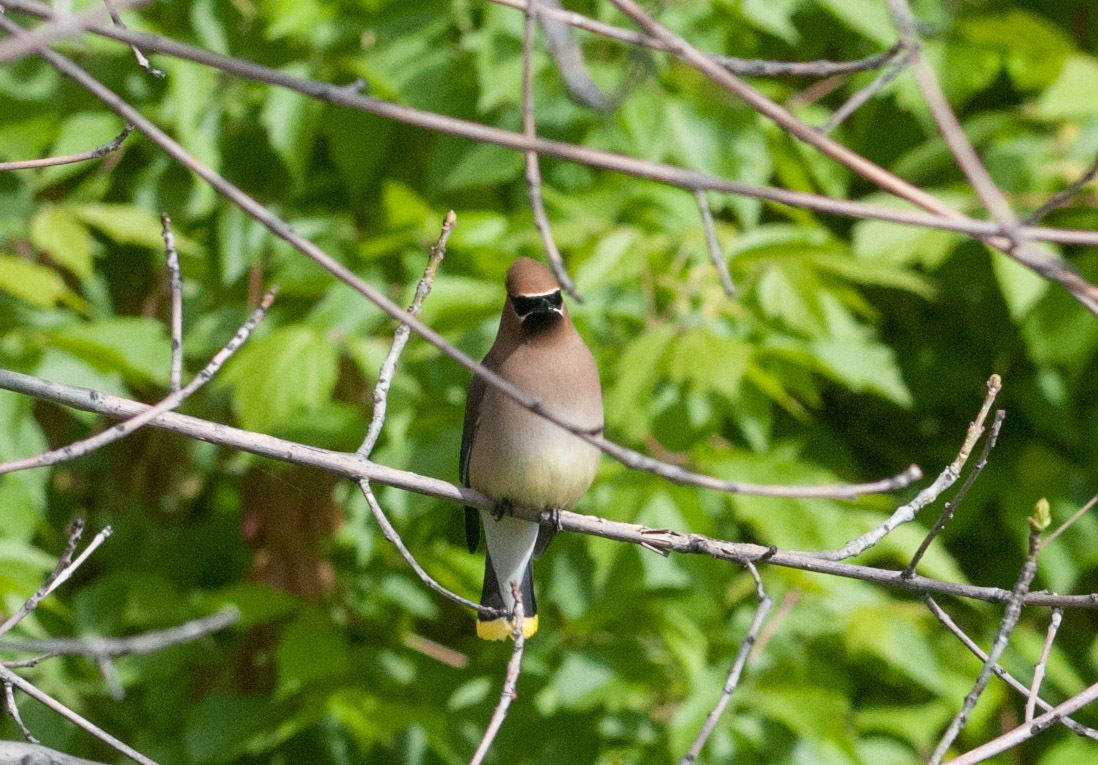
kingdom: Animalia
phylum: Chordata
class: Aves
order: Passeriformes
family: Bombycillidae
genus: Bombycilla
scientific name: Bombycilla cedrorum
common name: Cedar waxwing
